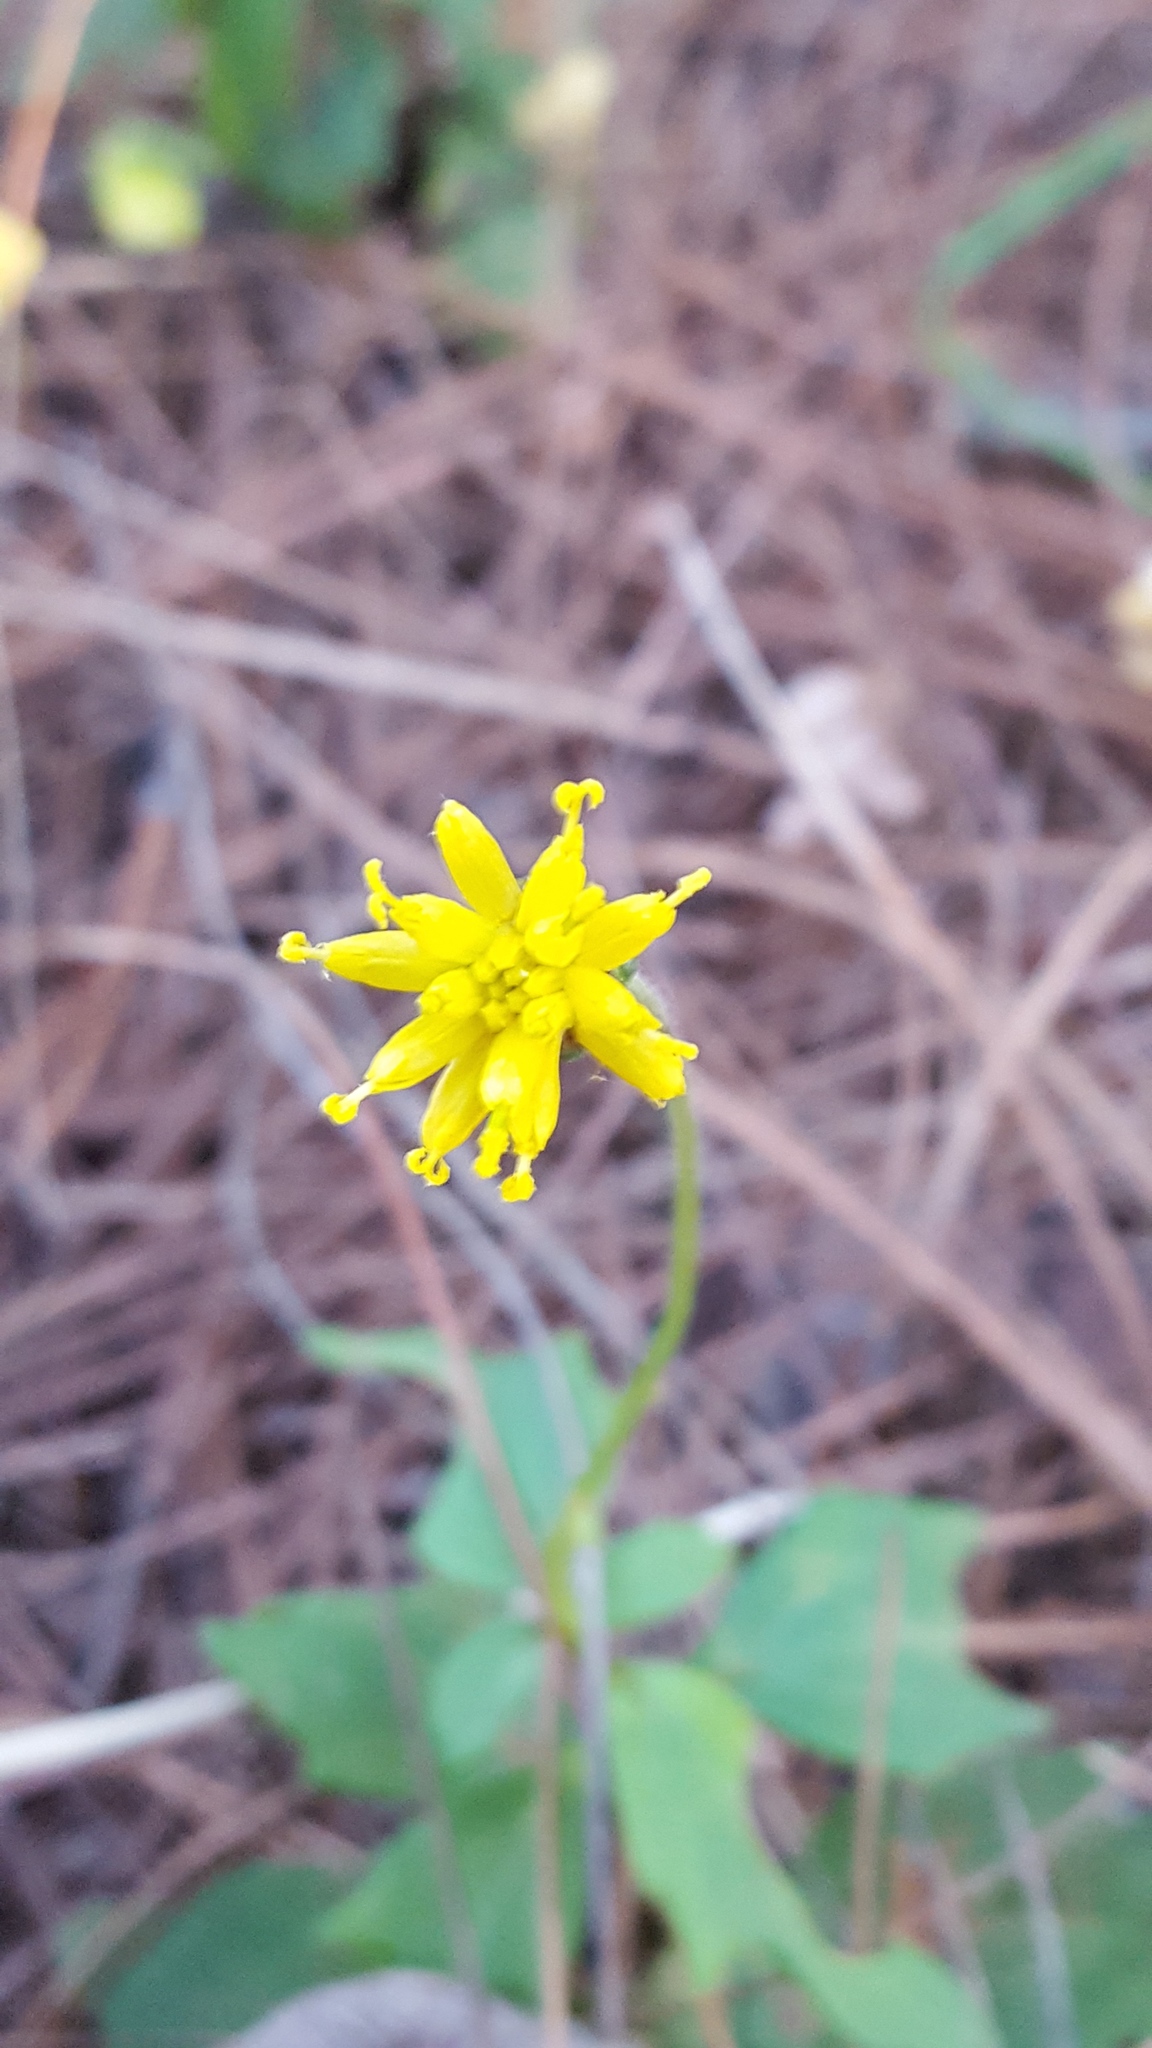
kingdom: Plantae
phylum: Tracheophyta
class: Magnoliopsida
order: Asterales
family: Asteraceae
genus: Tridax
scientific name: Tridax brachylepis
